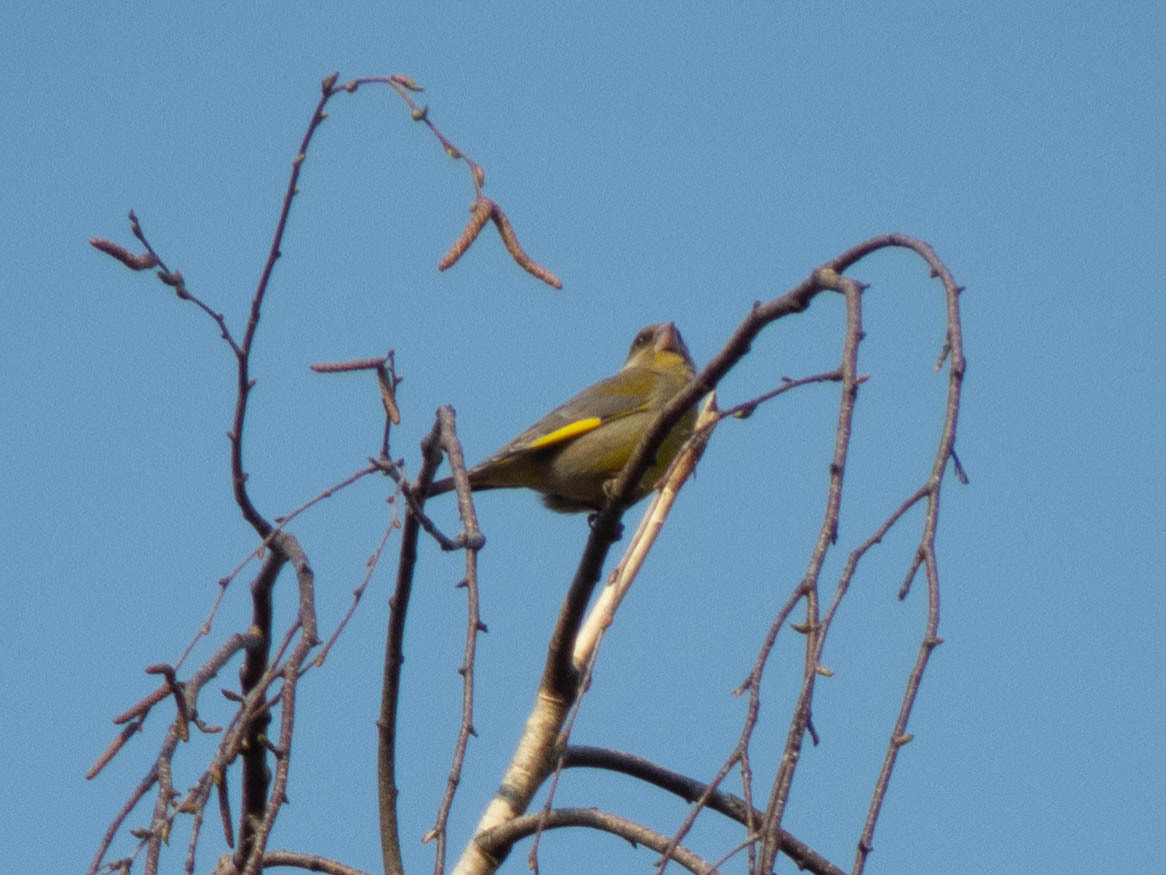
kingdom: Plantae
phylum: Tracheophyta
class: Liliopsida
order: Poales
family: Poaceae
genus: Chloris
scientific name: Chloris chloris
